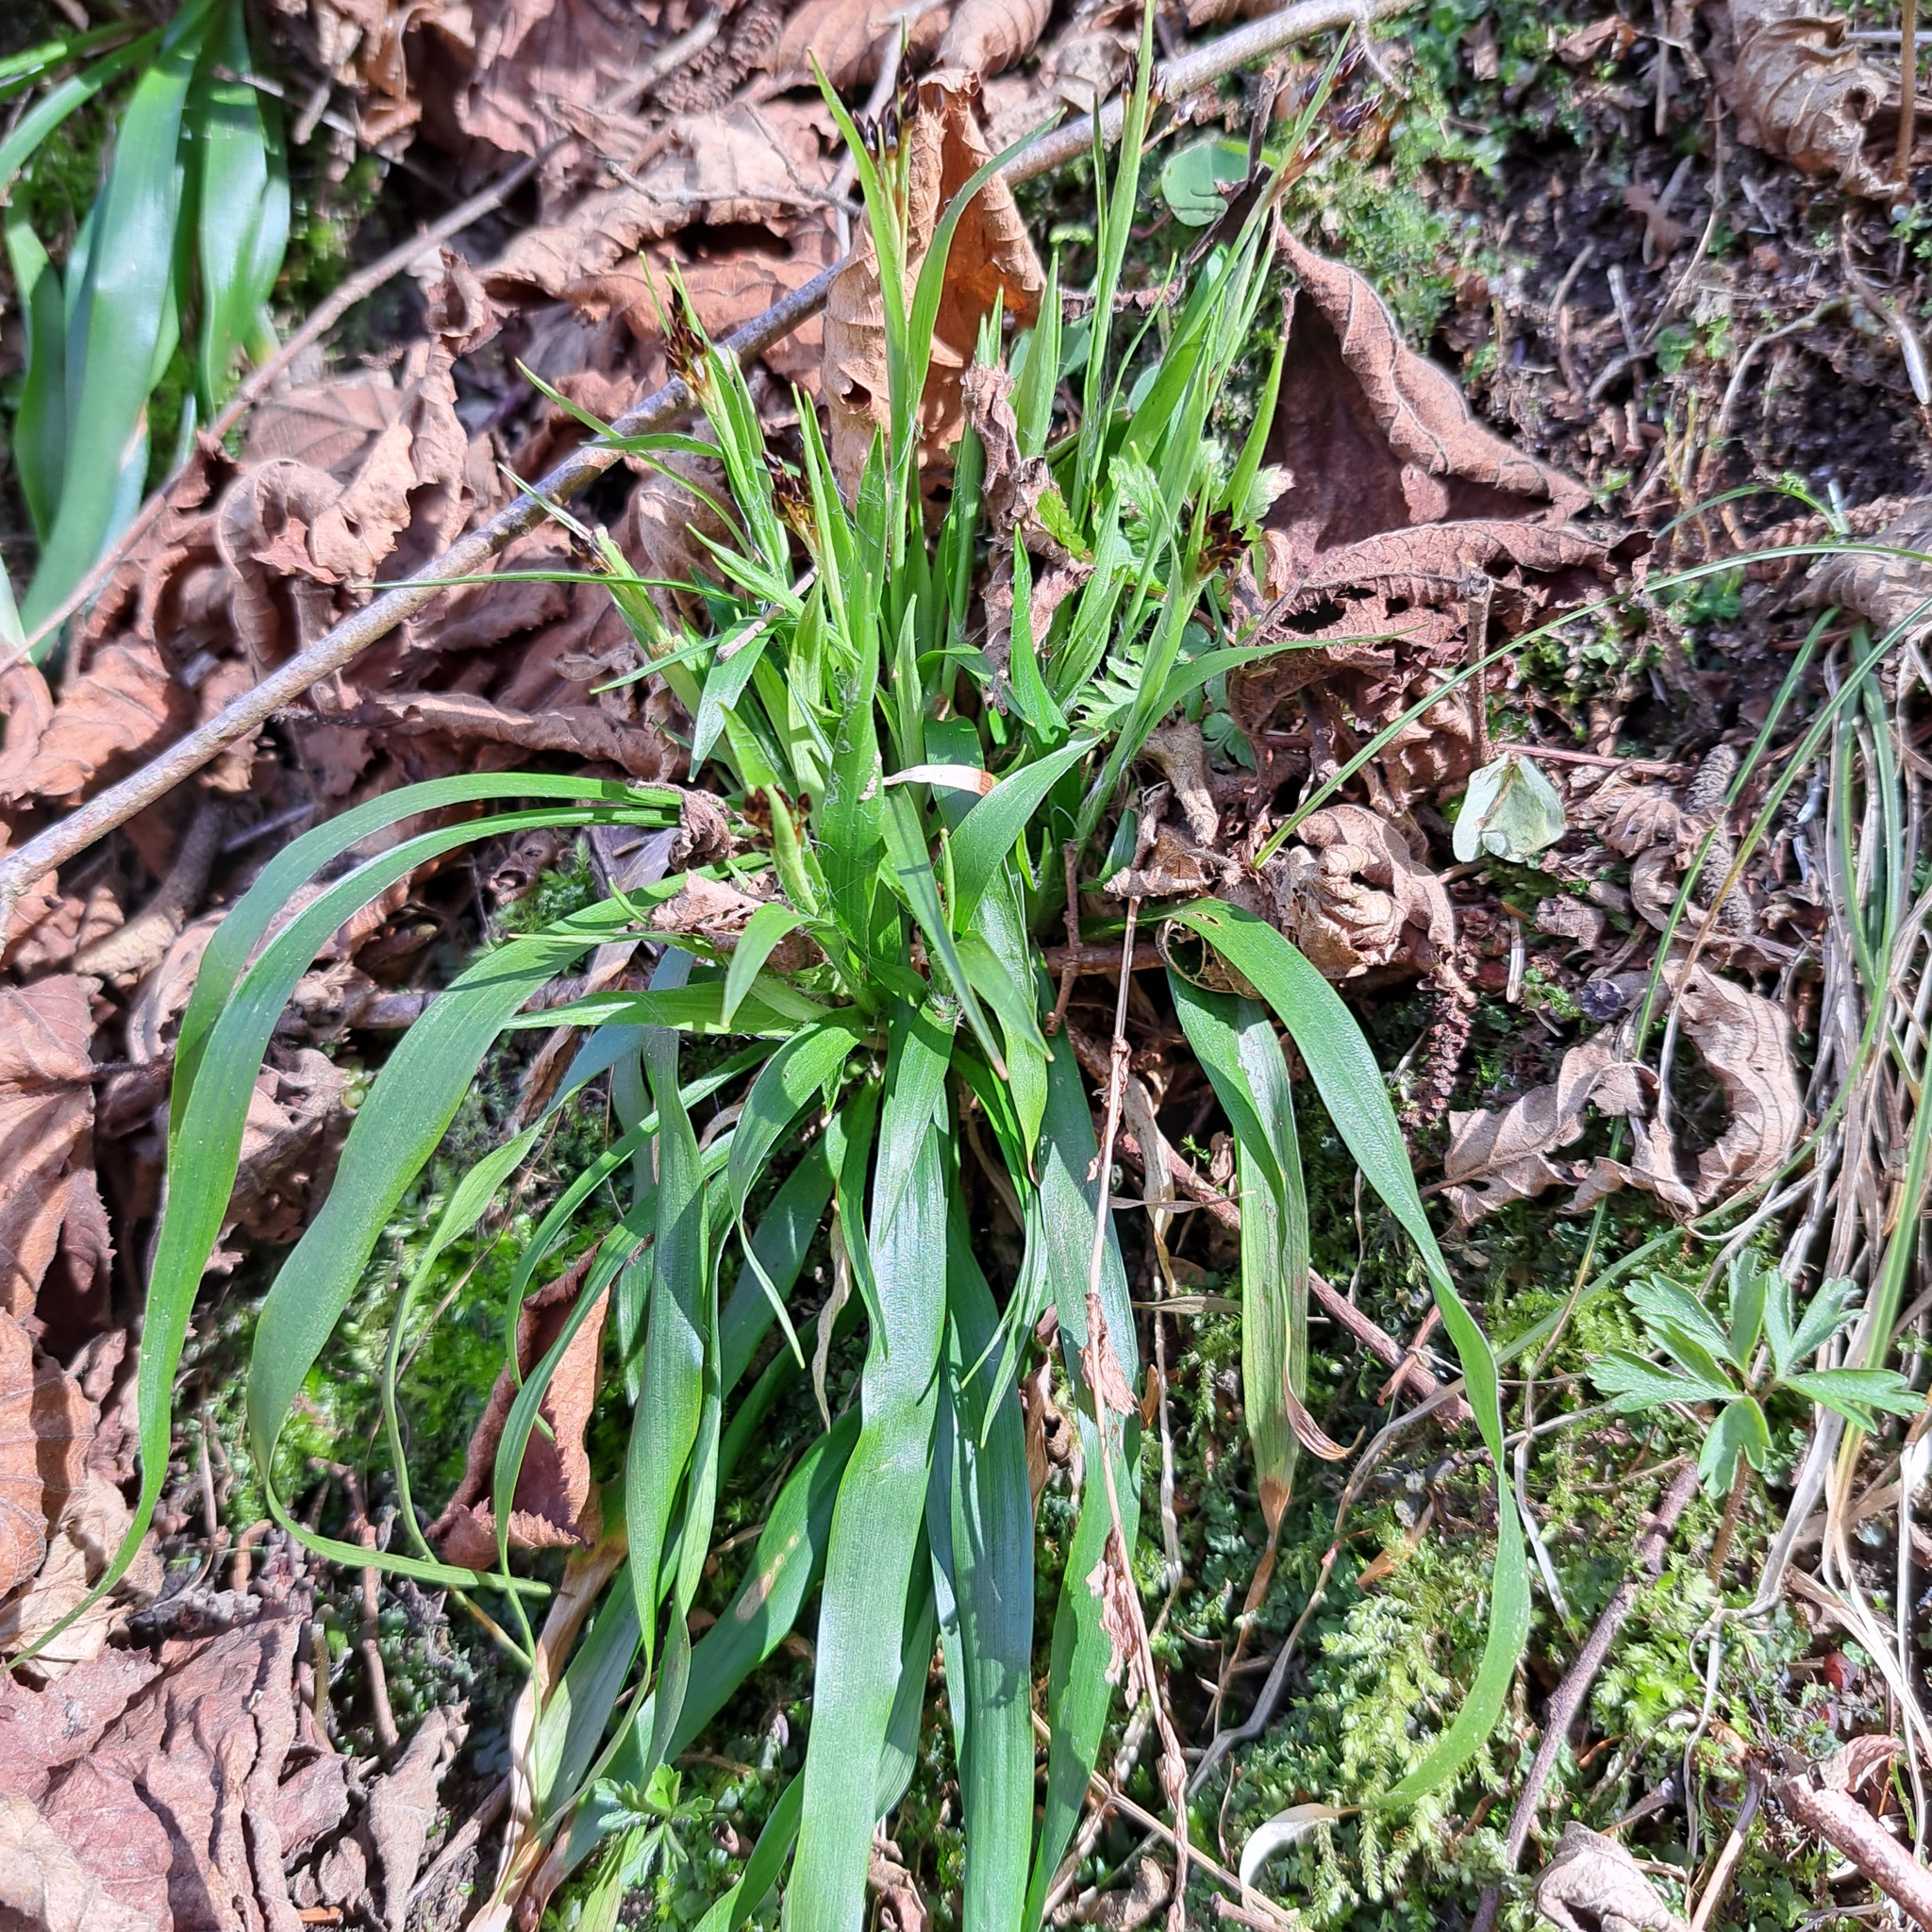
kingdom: Plantae
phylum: Tracheophyta
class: Liliopsida
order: Poales
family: Juncaceae
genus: Luzula
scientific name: Luzula pilosa
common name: Hairy wood-rush
